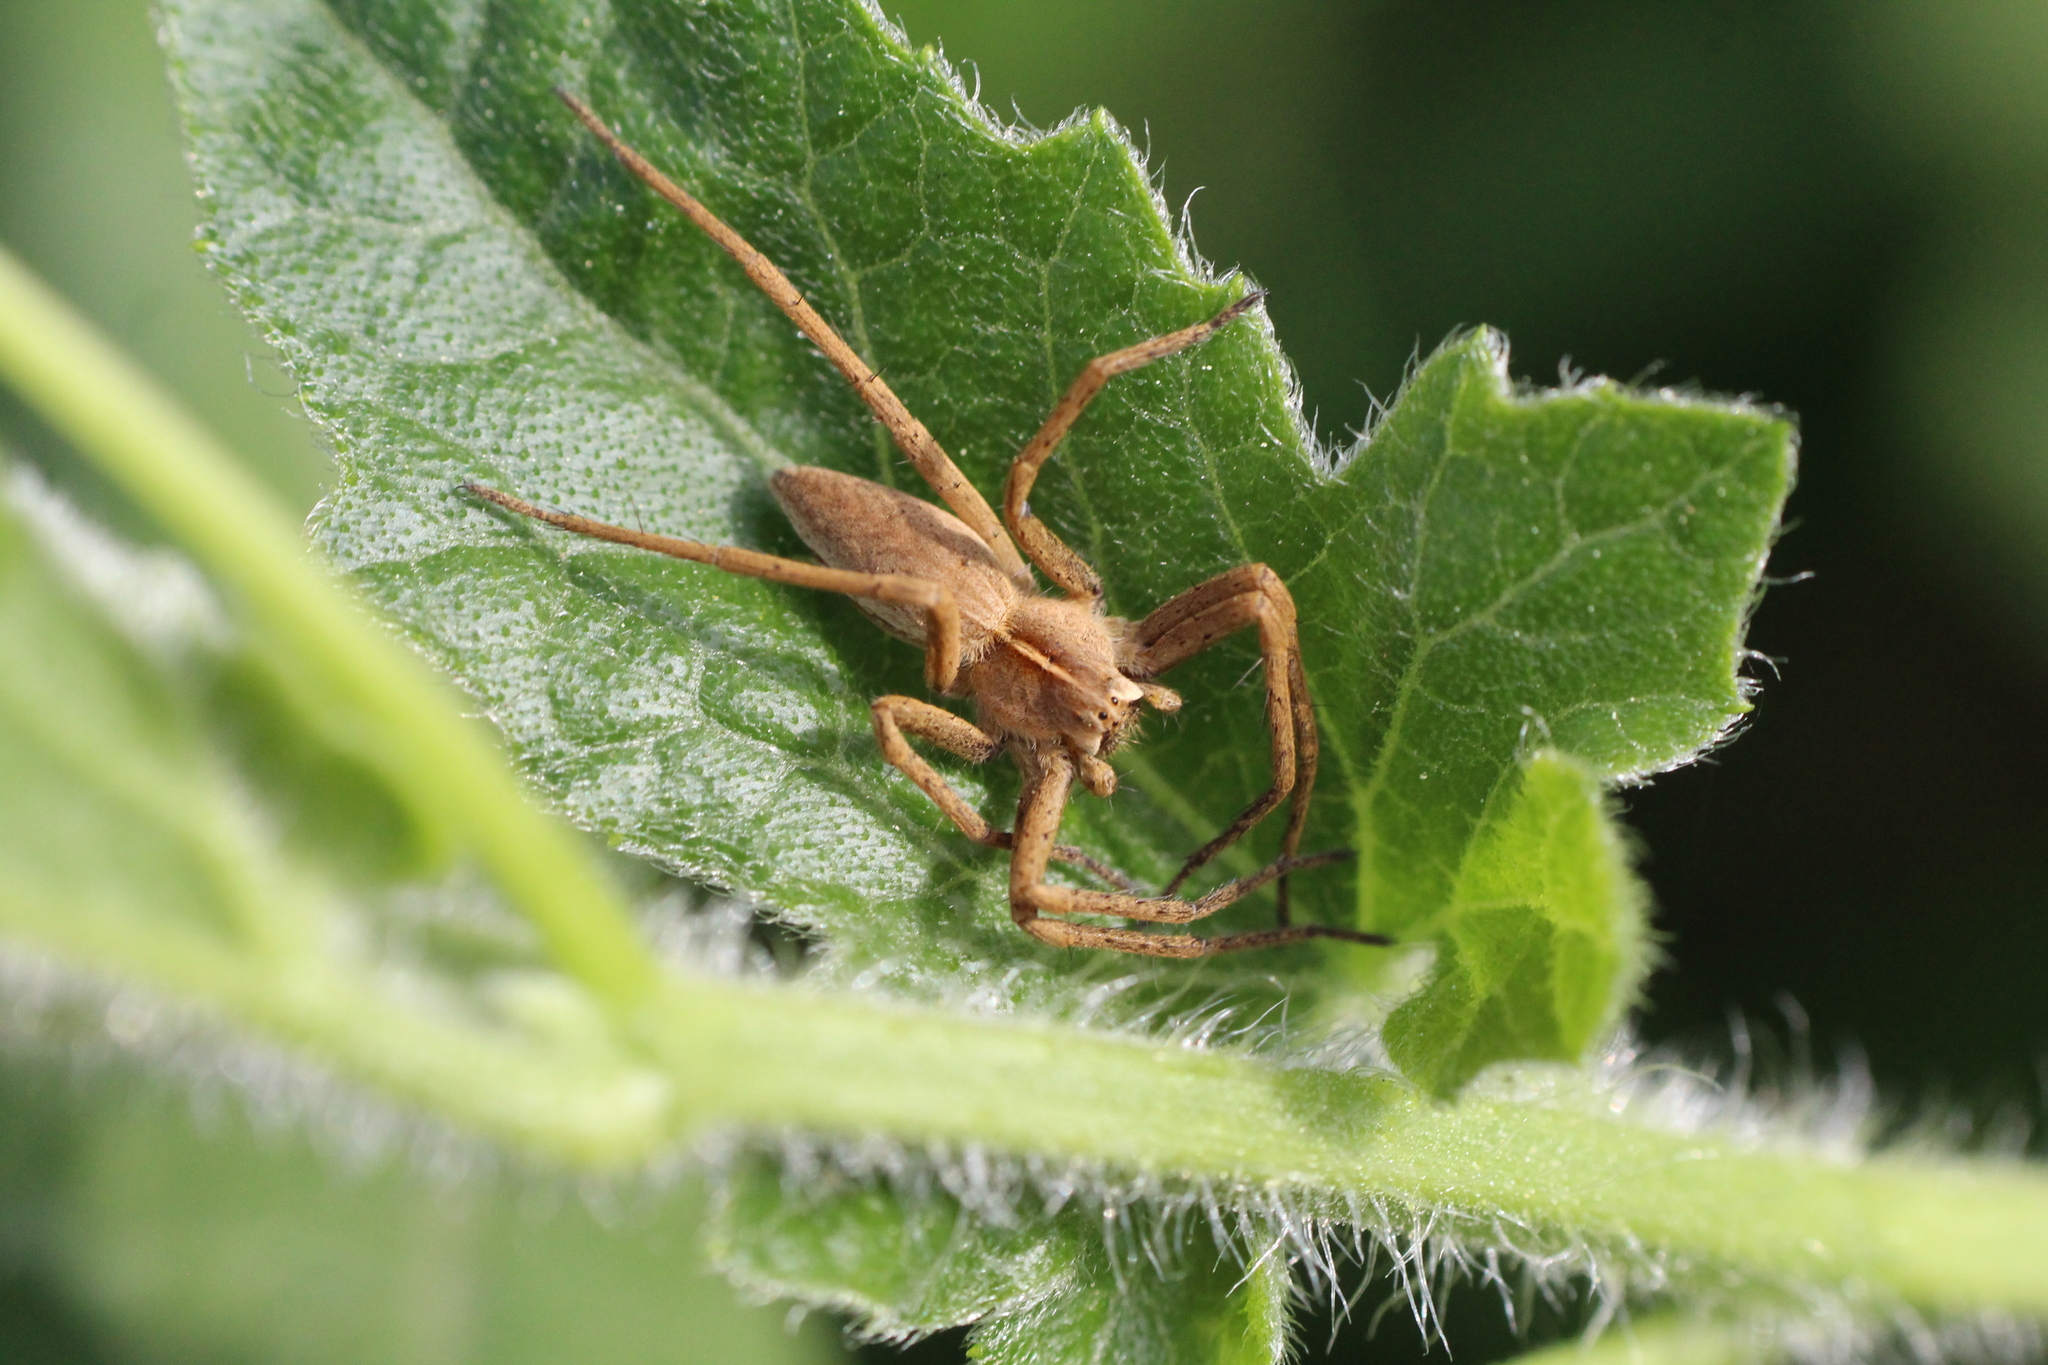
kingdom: Animalia
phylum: Arthropoda
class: Arachnida
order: Araneae
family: Pisauridae
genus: Pisaura
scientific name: Pisaura mirabilis
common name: Tent spider
